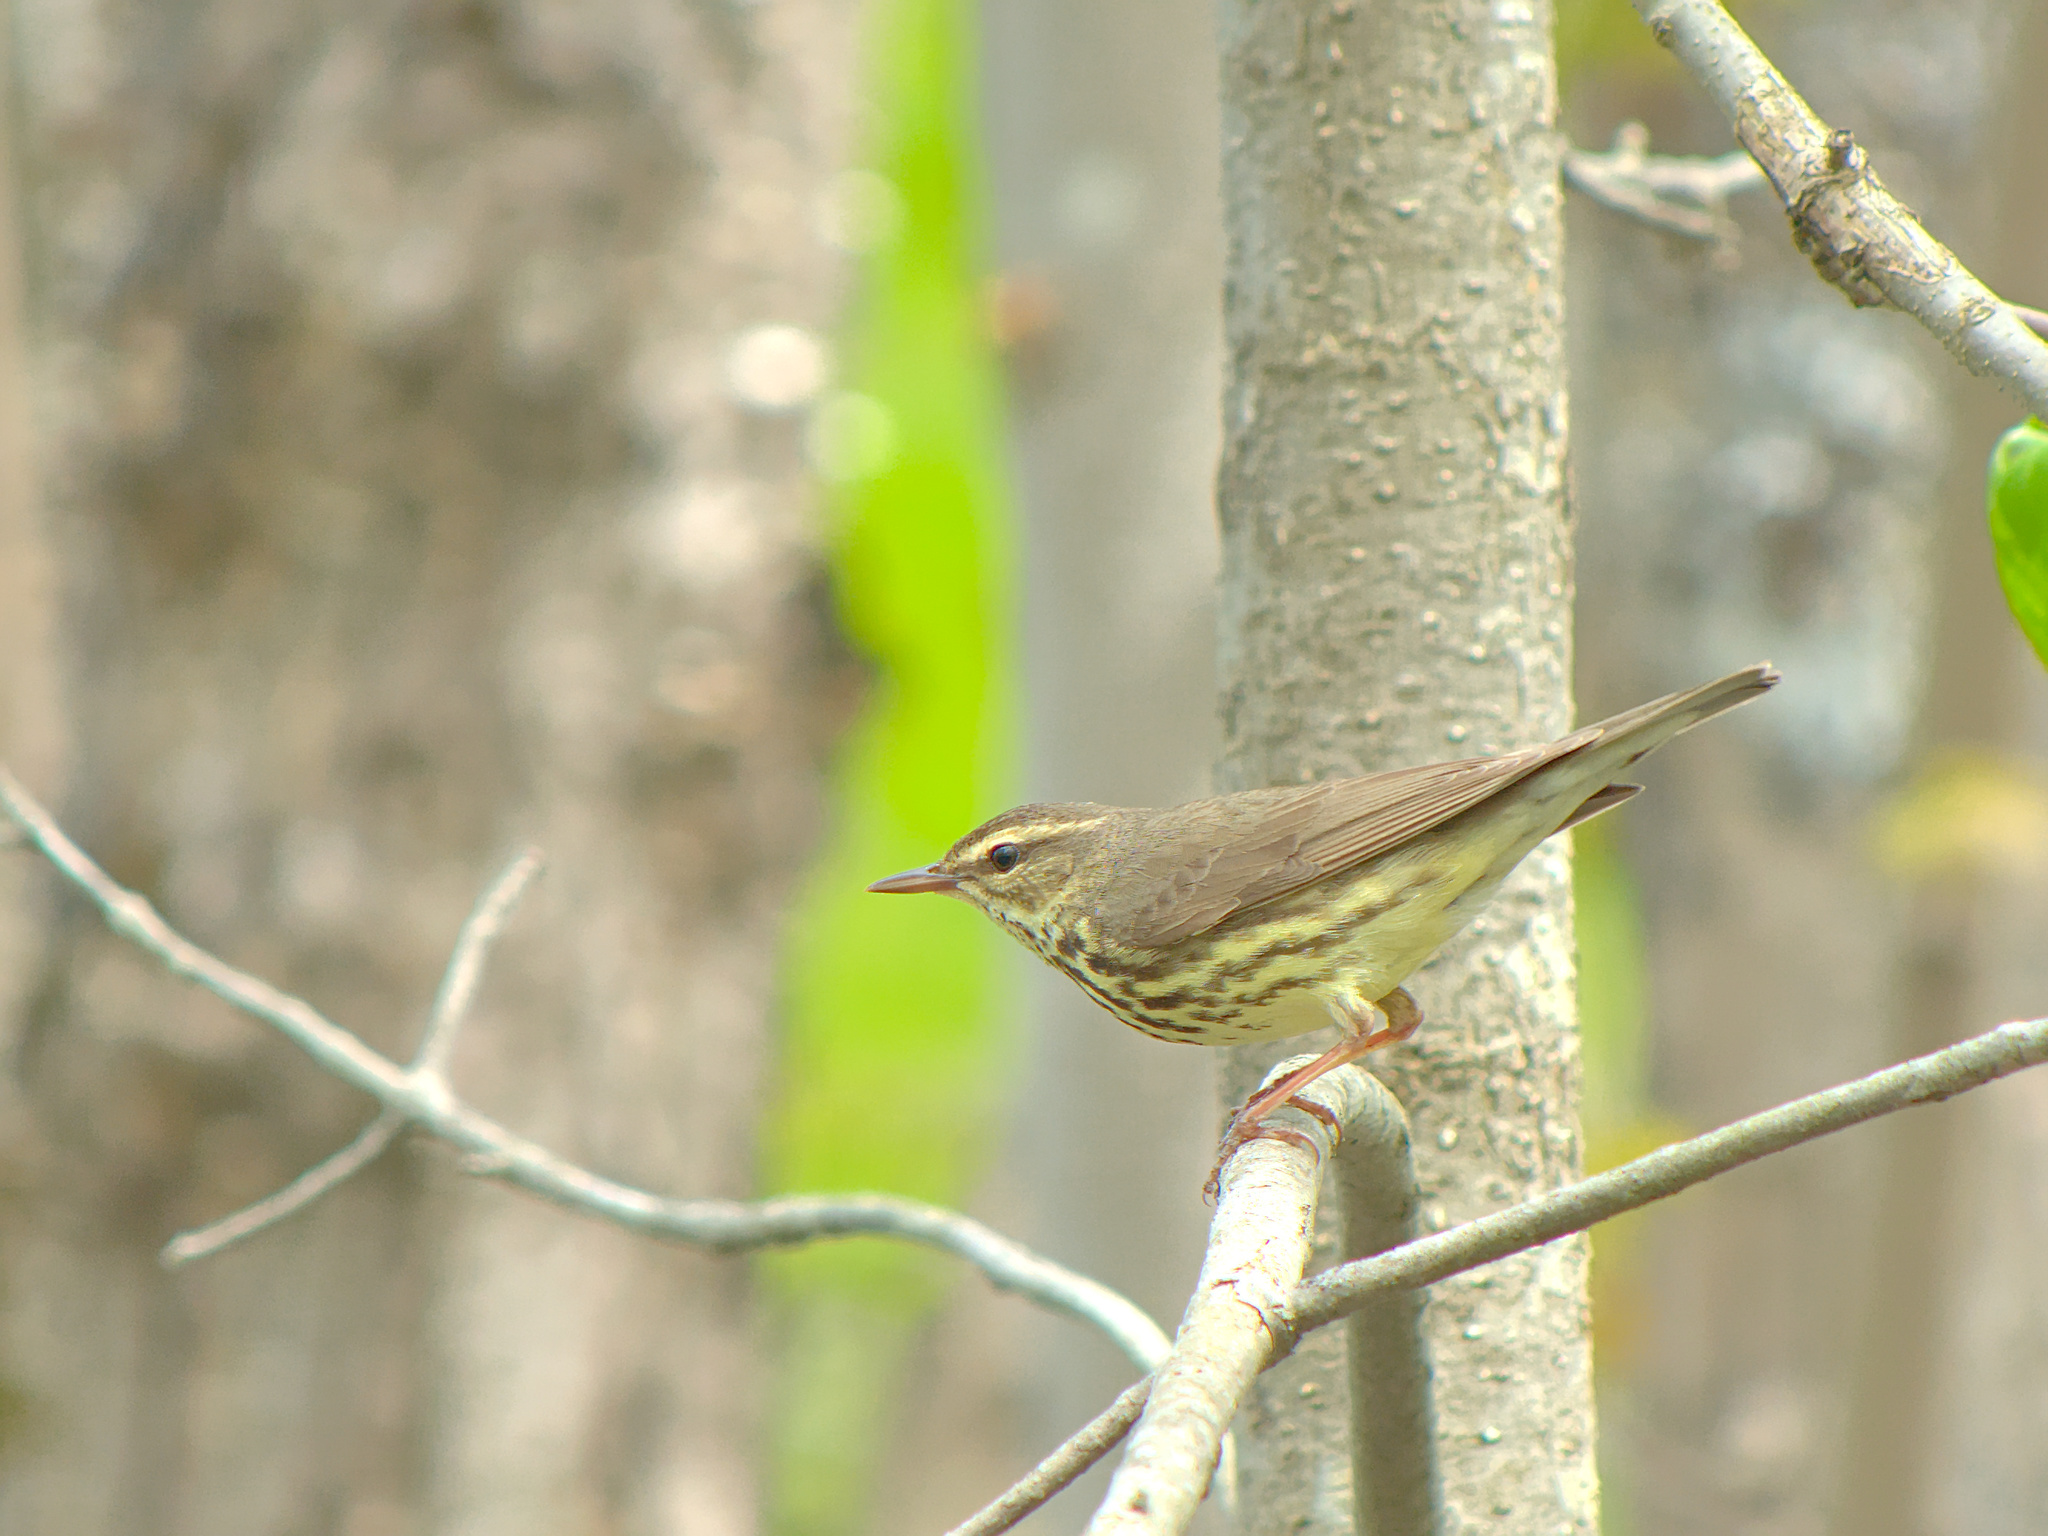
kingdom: Animalia
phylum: Chordata
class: Aves
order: Passeriformes
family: Parulidae
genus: Parkesia
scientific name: Parkesia noveboracensis
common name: Northern waterthrush
